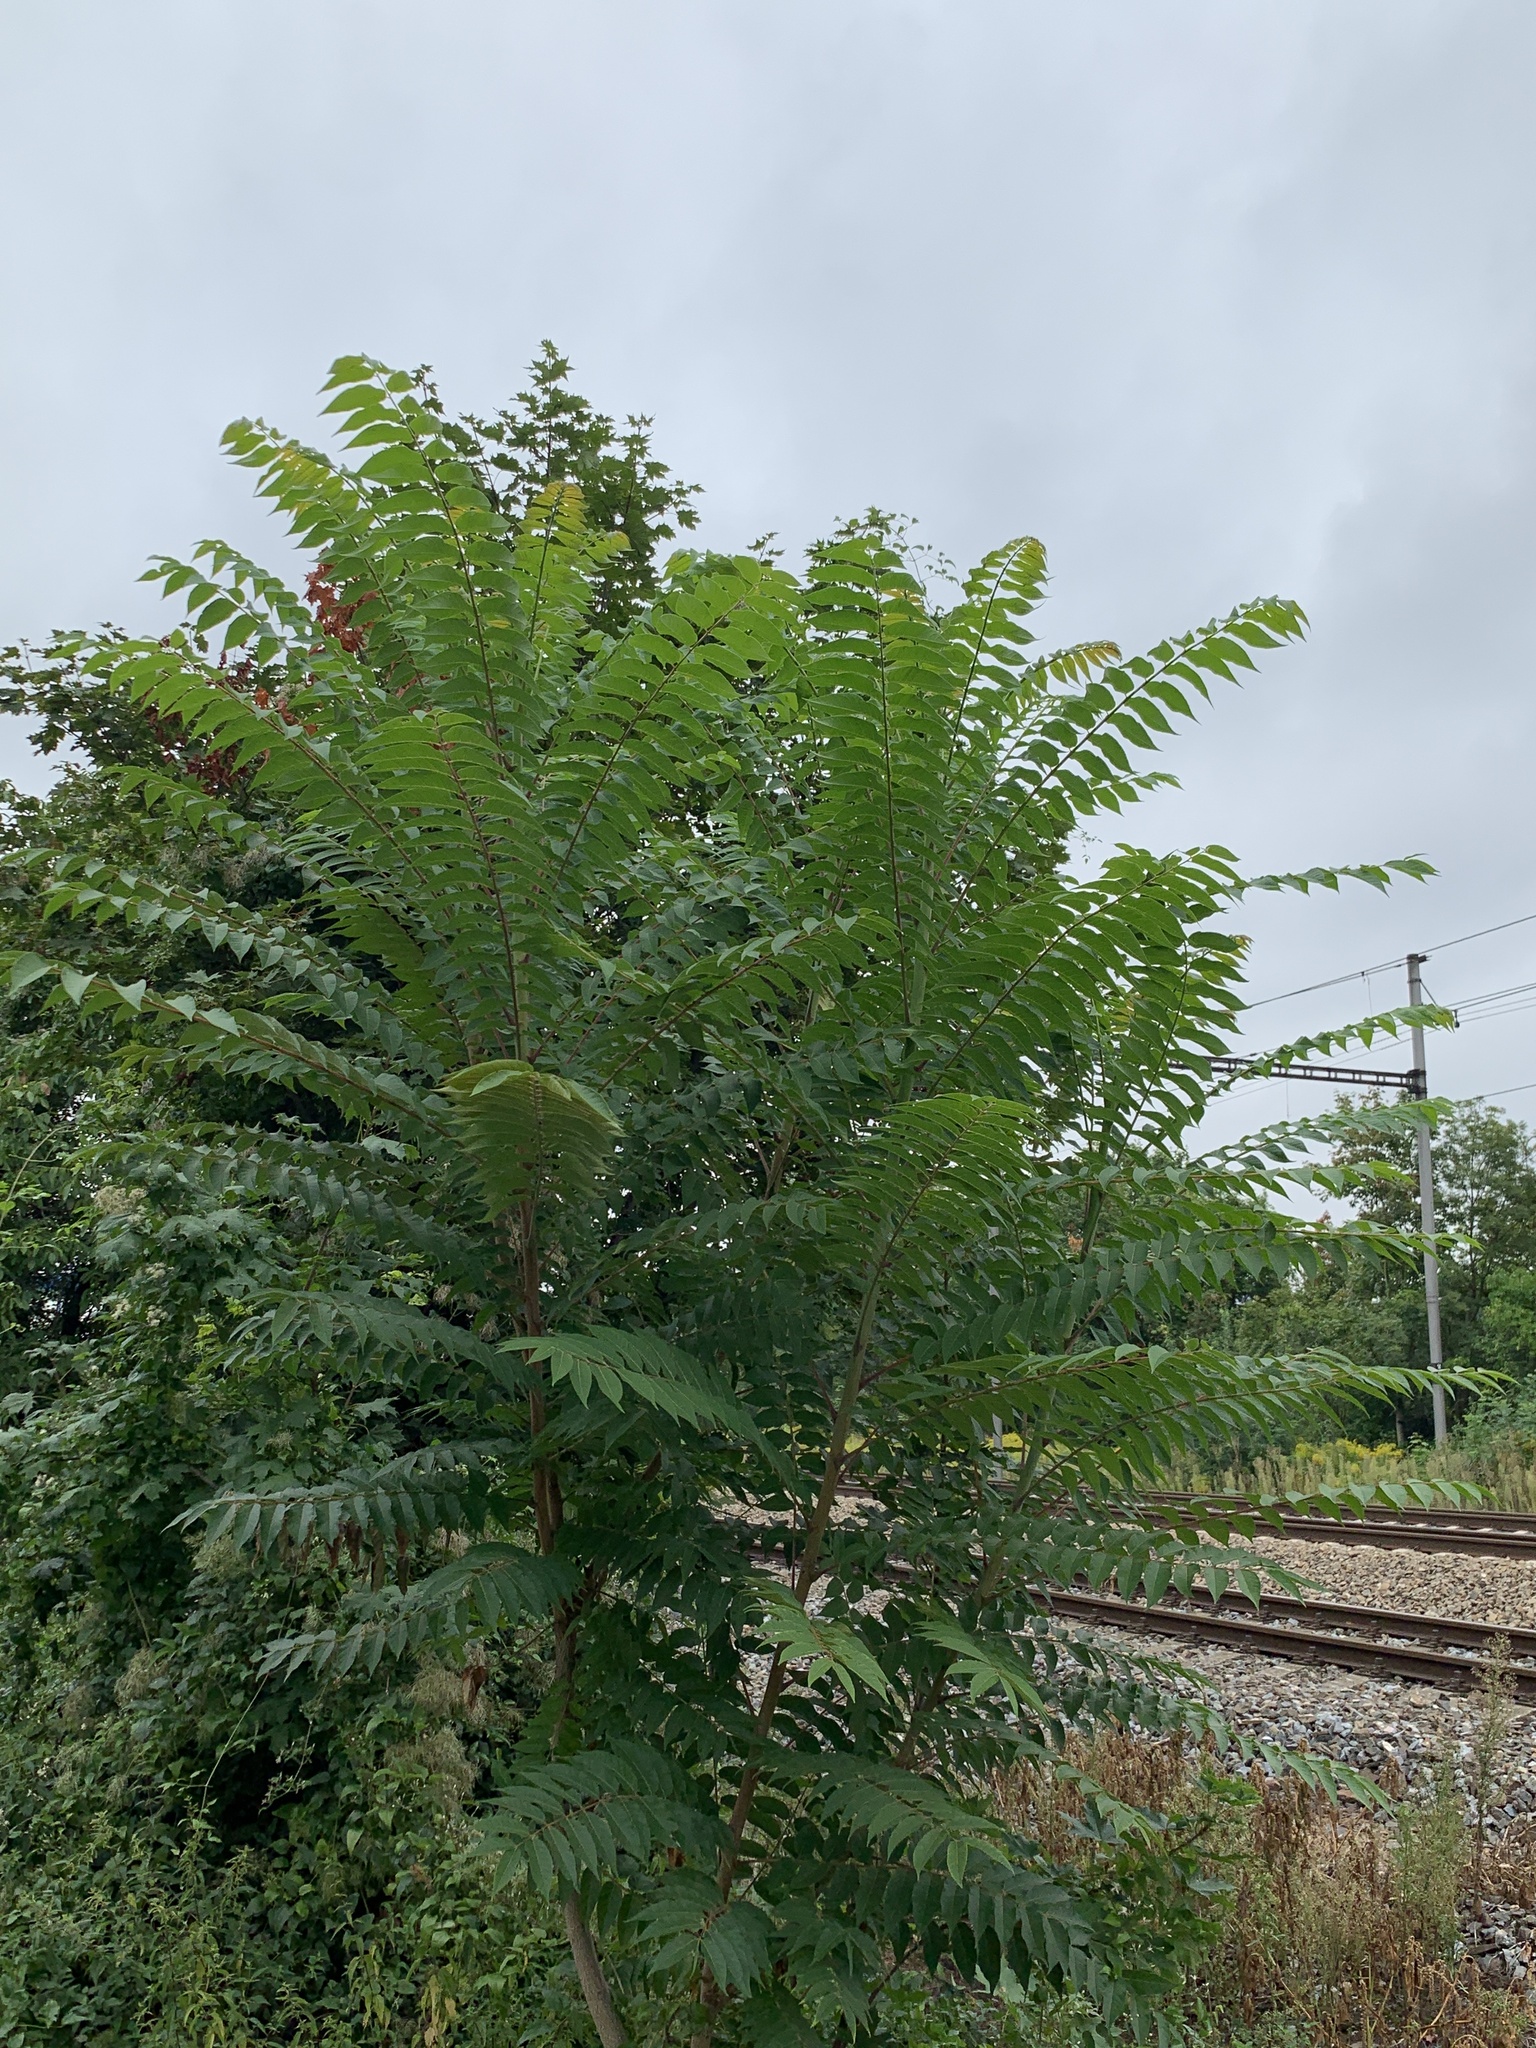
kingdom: Plantae
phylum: Tracheophyta
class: Magnoliopsida
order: Sapindales
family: Simaroubaceae
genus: Ailanthus
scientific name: Ailanthus altissima
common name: Tree-of-heaven
